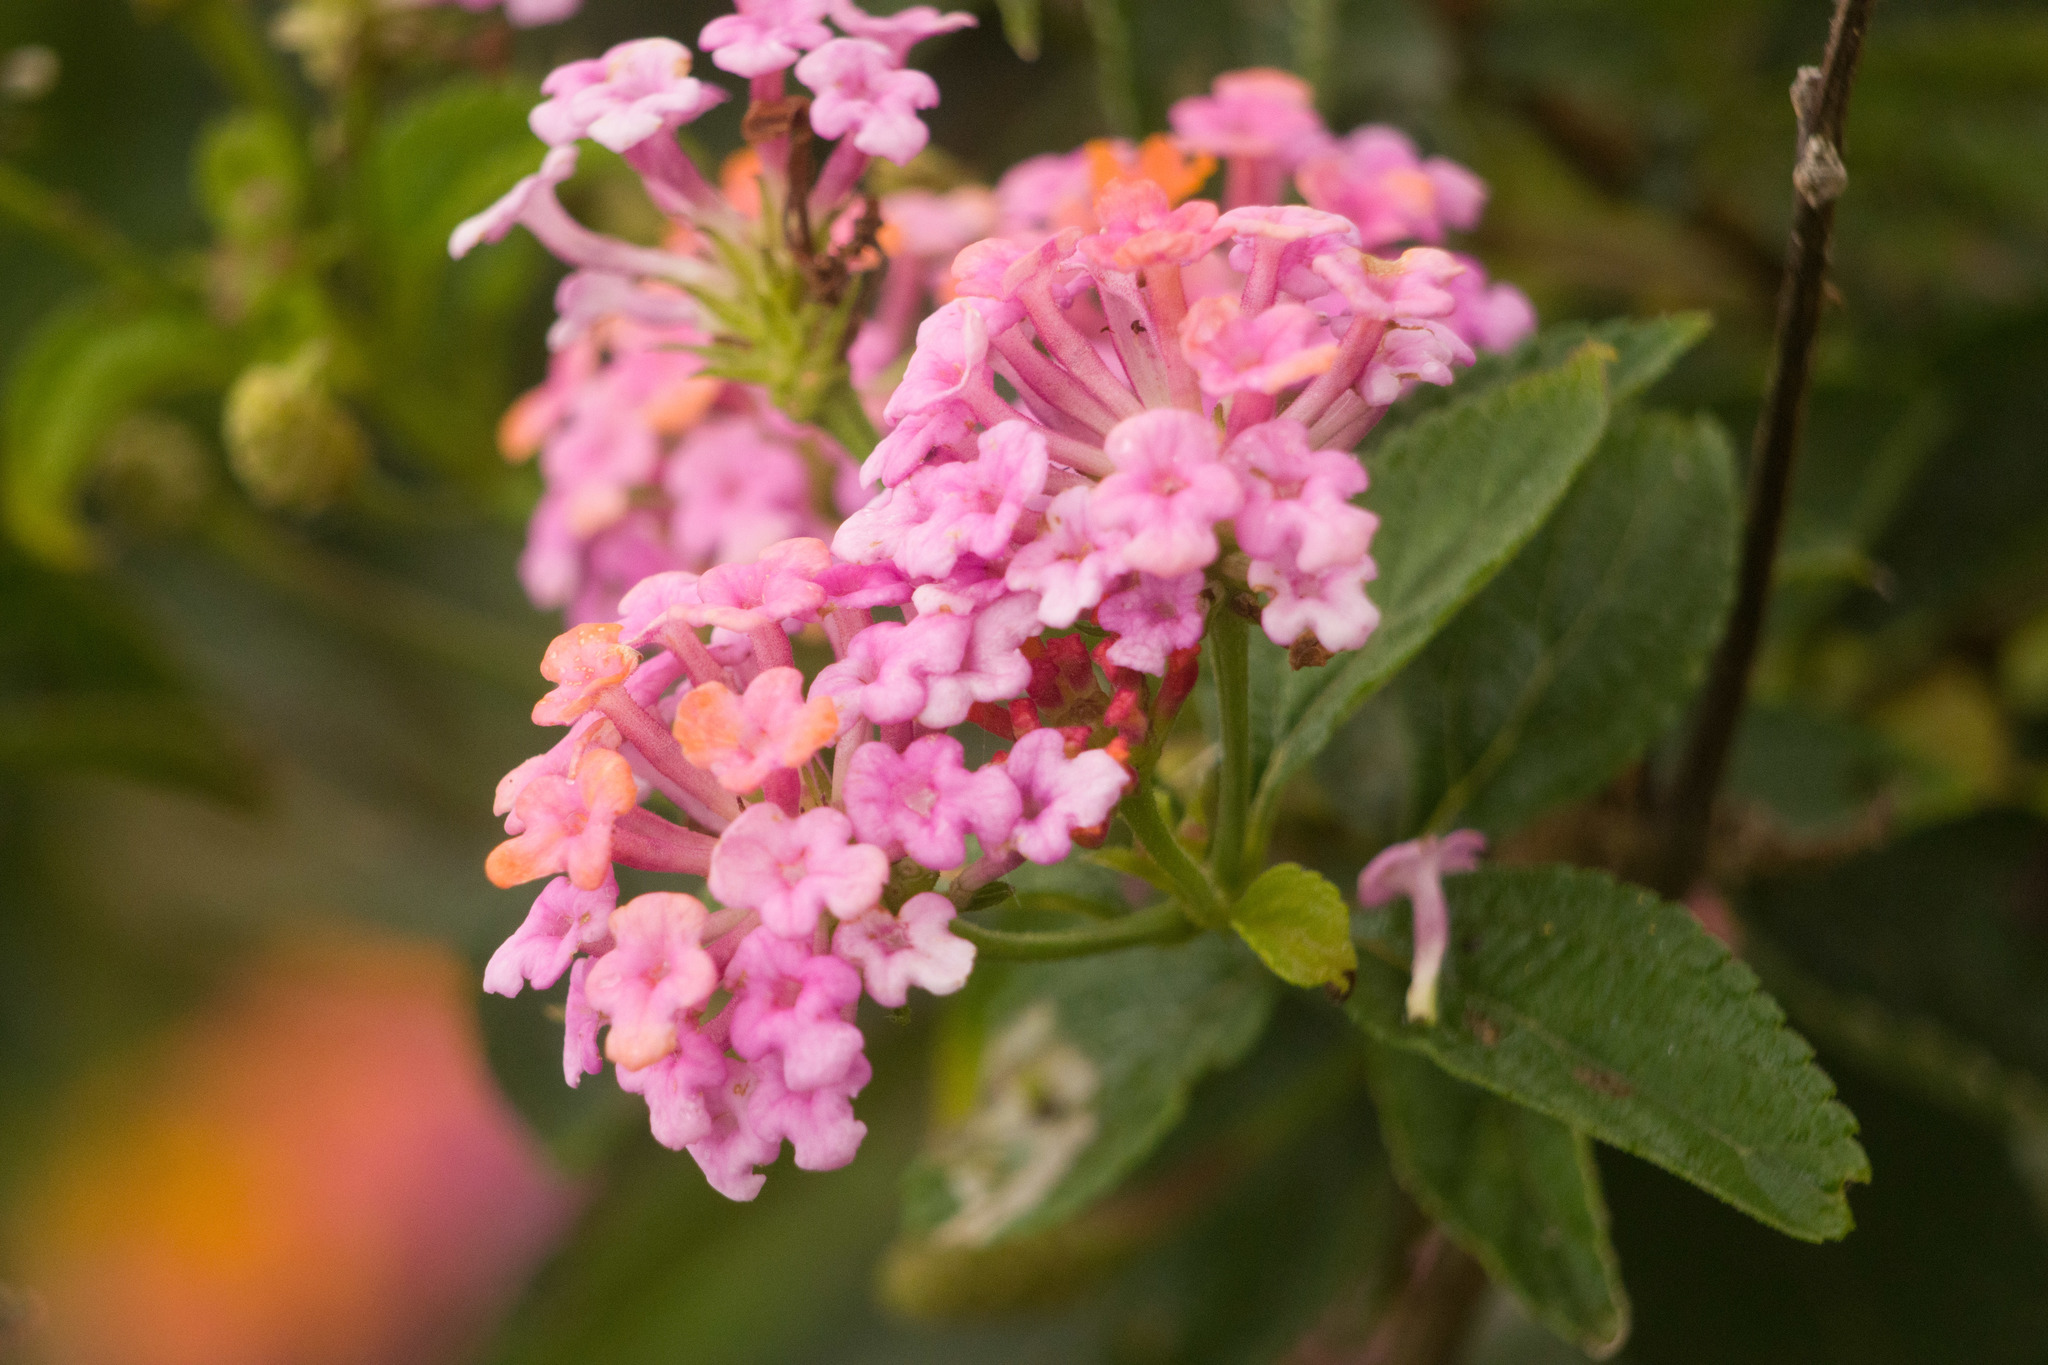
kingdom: Plantae
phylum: Tracheophyta
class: Magnoliopsida
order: Lamiales
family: Verbenaceae
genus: Lantana
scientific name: Lantana camara
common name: Lantana
